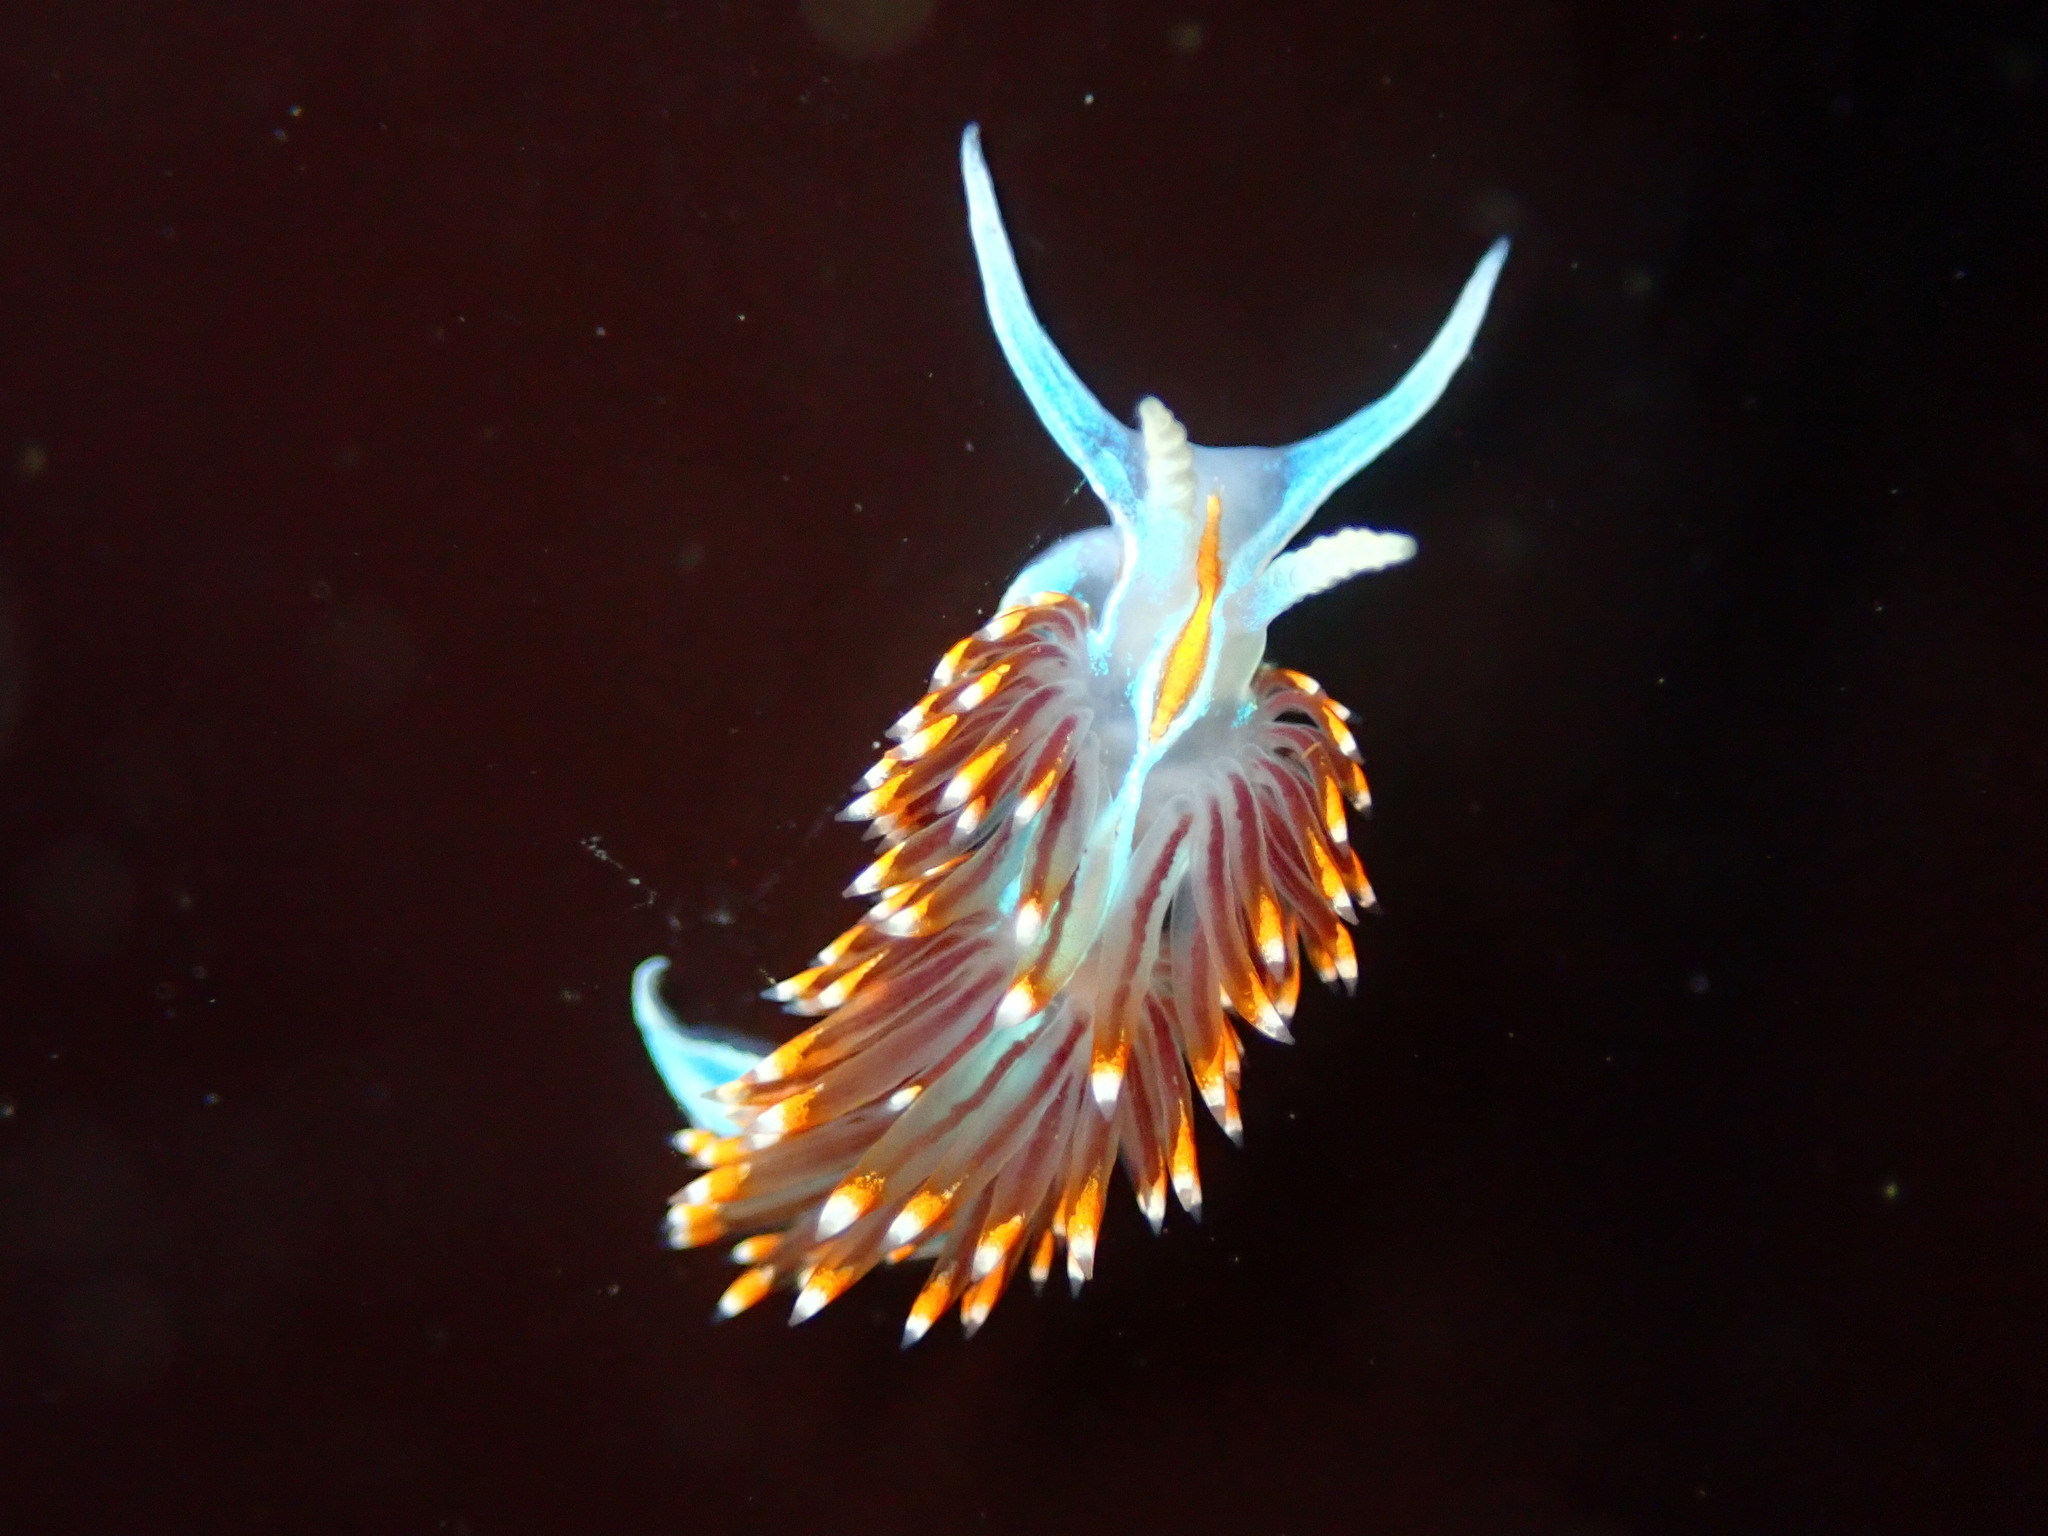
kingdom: Animalia
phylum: Mollusca
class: Gastropoda
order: Nudibranchia
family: Myrrhinidae
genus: Hermissenda
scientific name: Hermissenda opalescens
